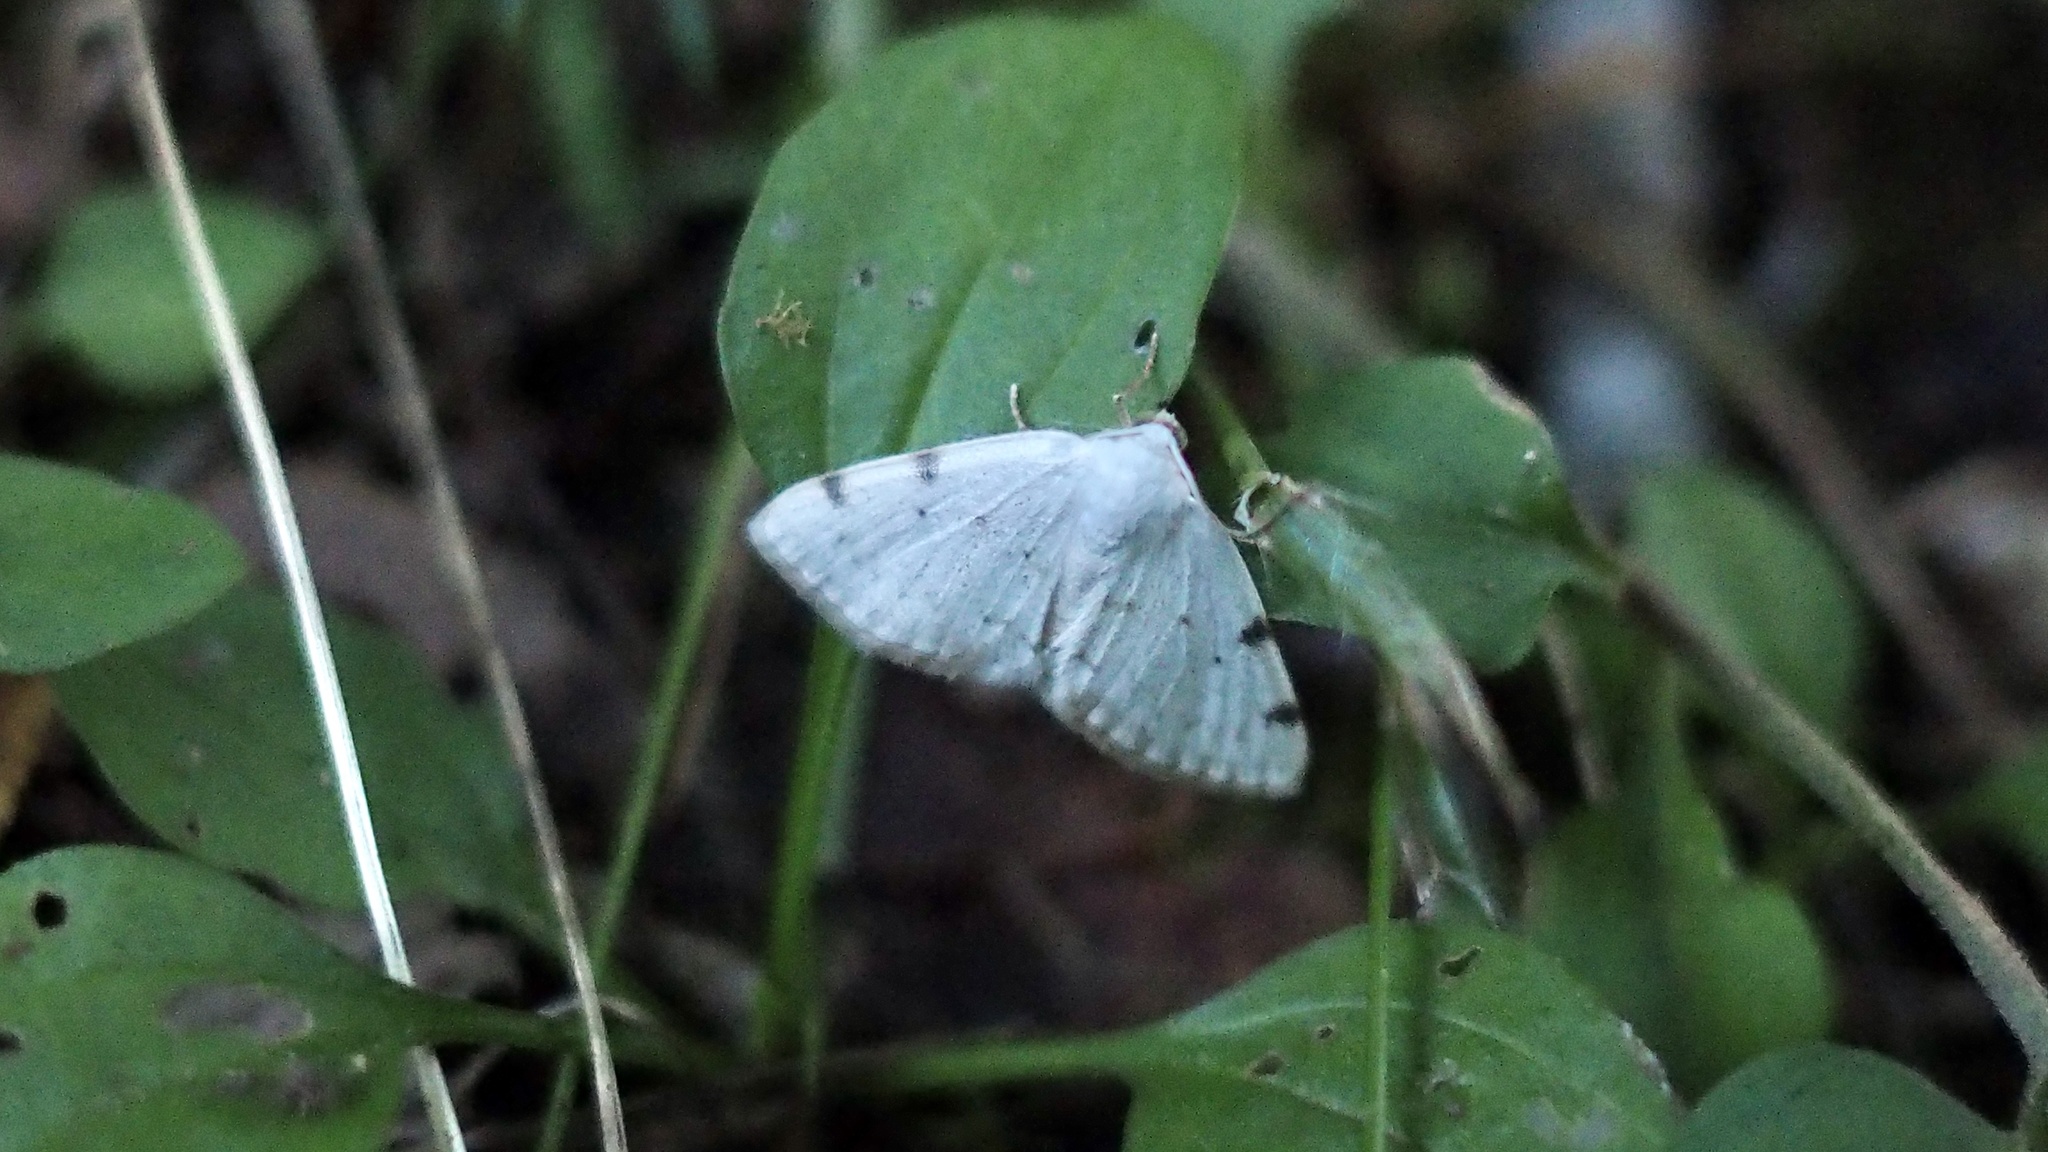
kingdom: Animalia
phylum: Arthropoda
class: Insecta
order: Lepidoptera
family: Geometridae
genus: Lomographa
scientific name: Lomographa bimaculata
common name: White-pinion spotted
